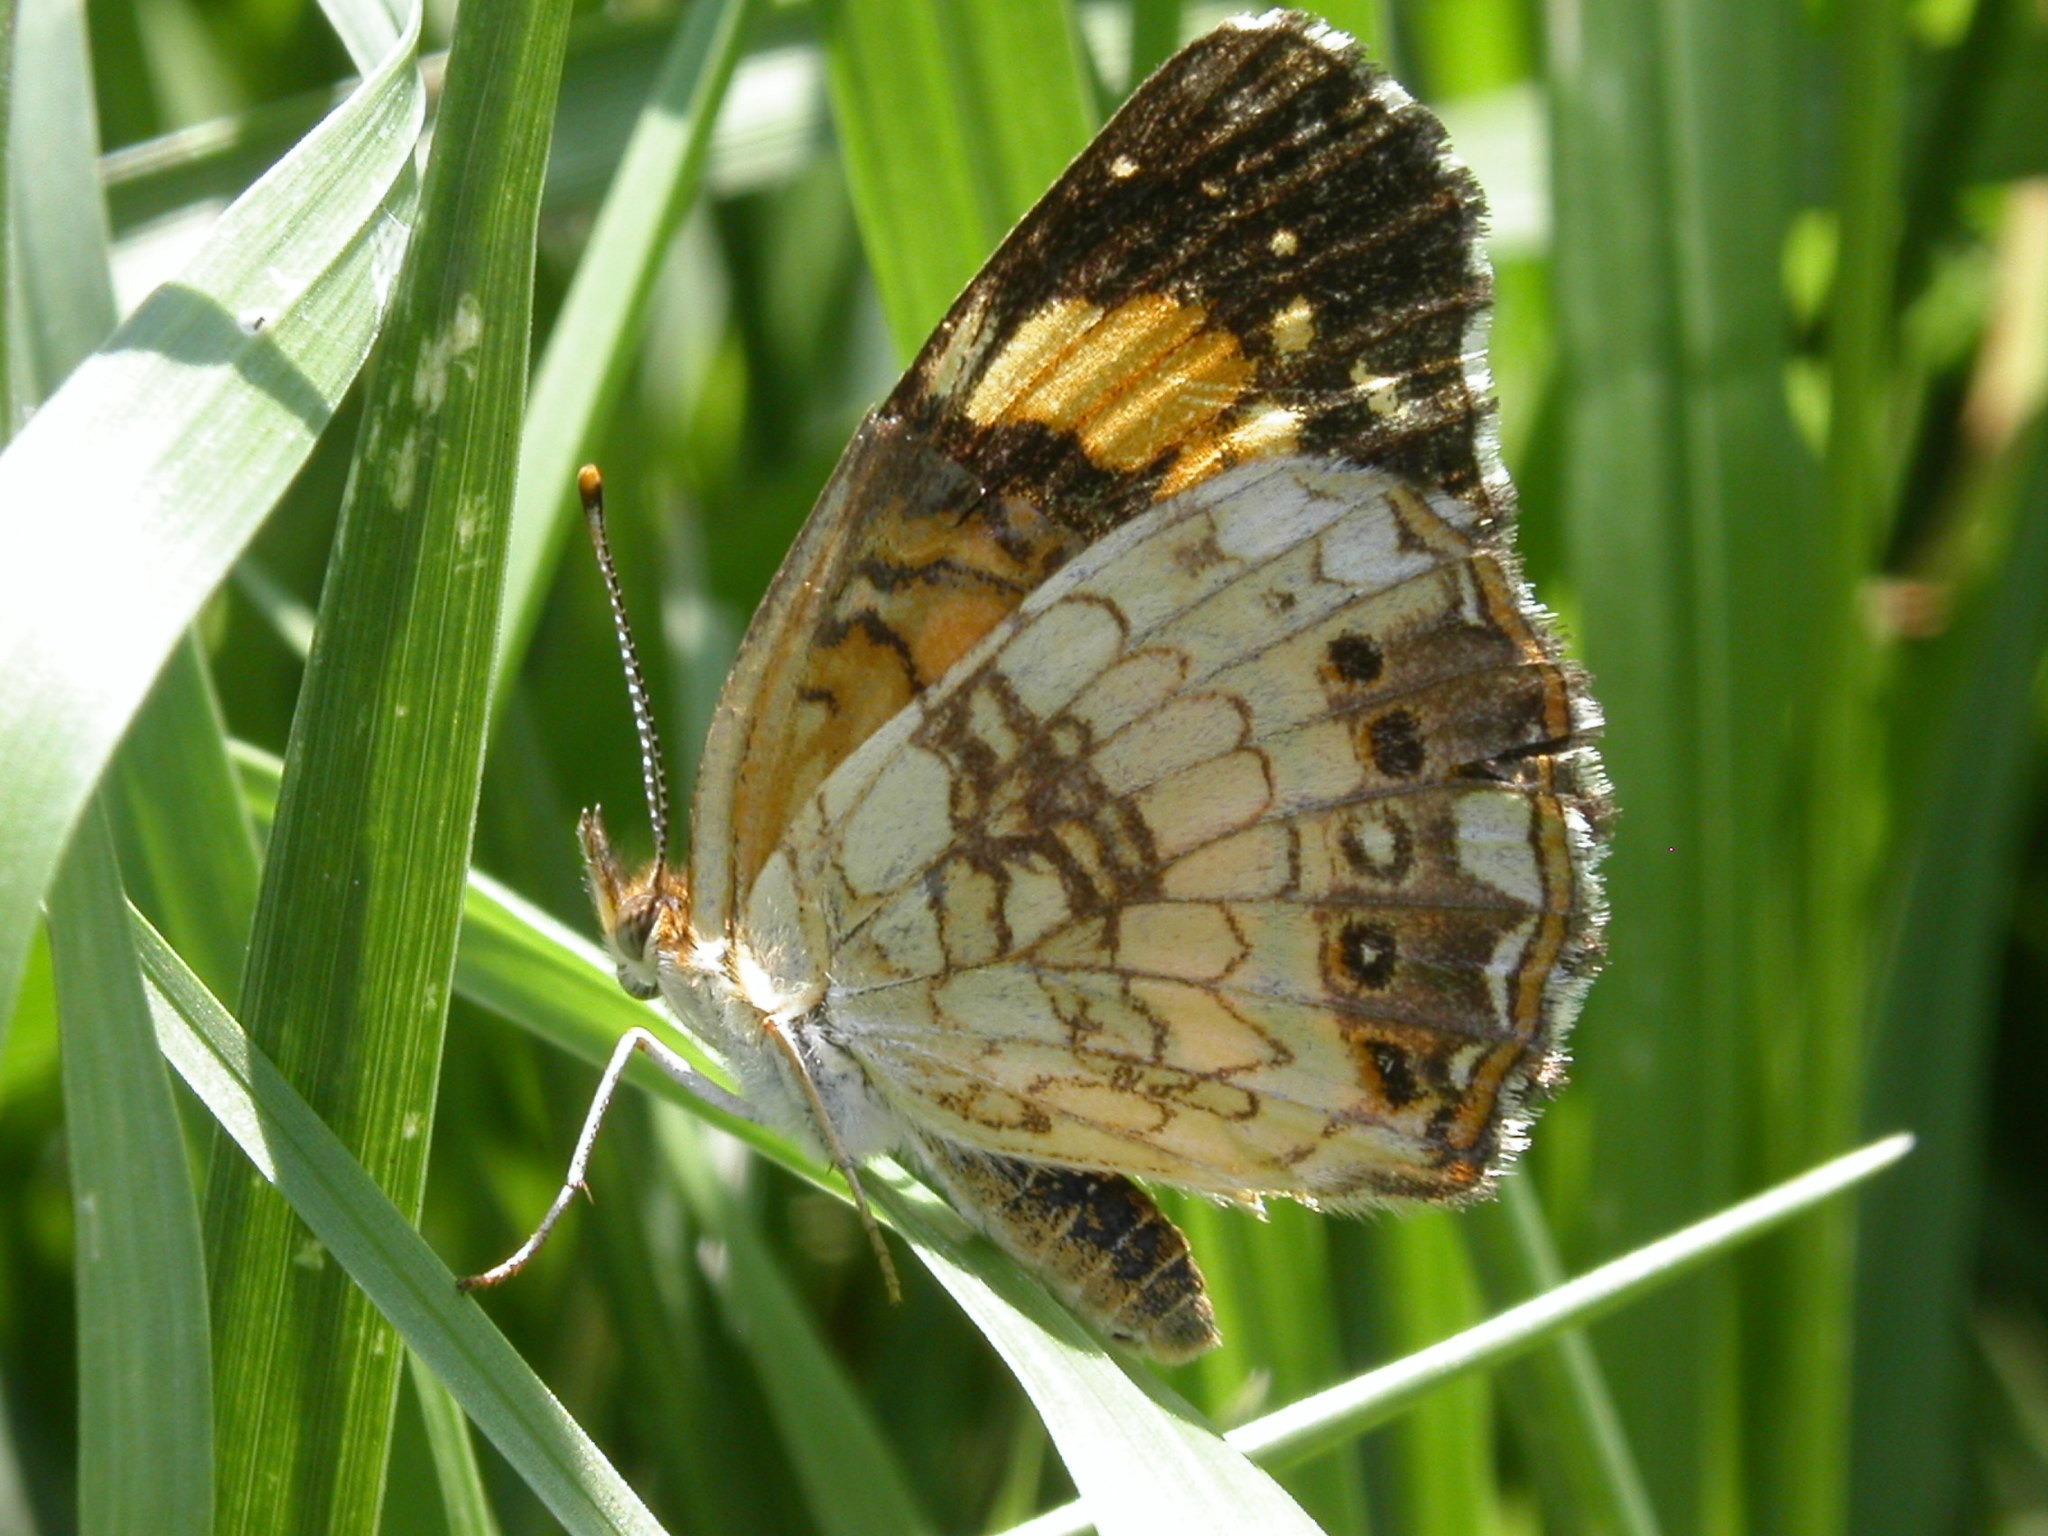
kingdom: Animalia
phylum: Arthropoda
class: Insecta
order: Lepidoptera
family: Nymphalidae
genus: Chlosyne
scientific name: Chlosyne nycteis
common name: Silvery checkerspot
